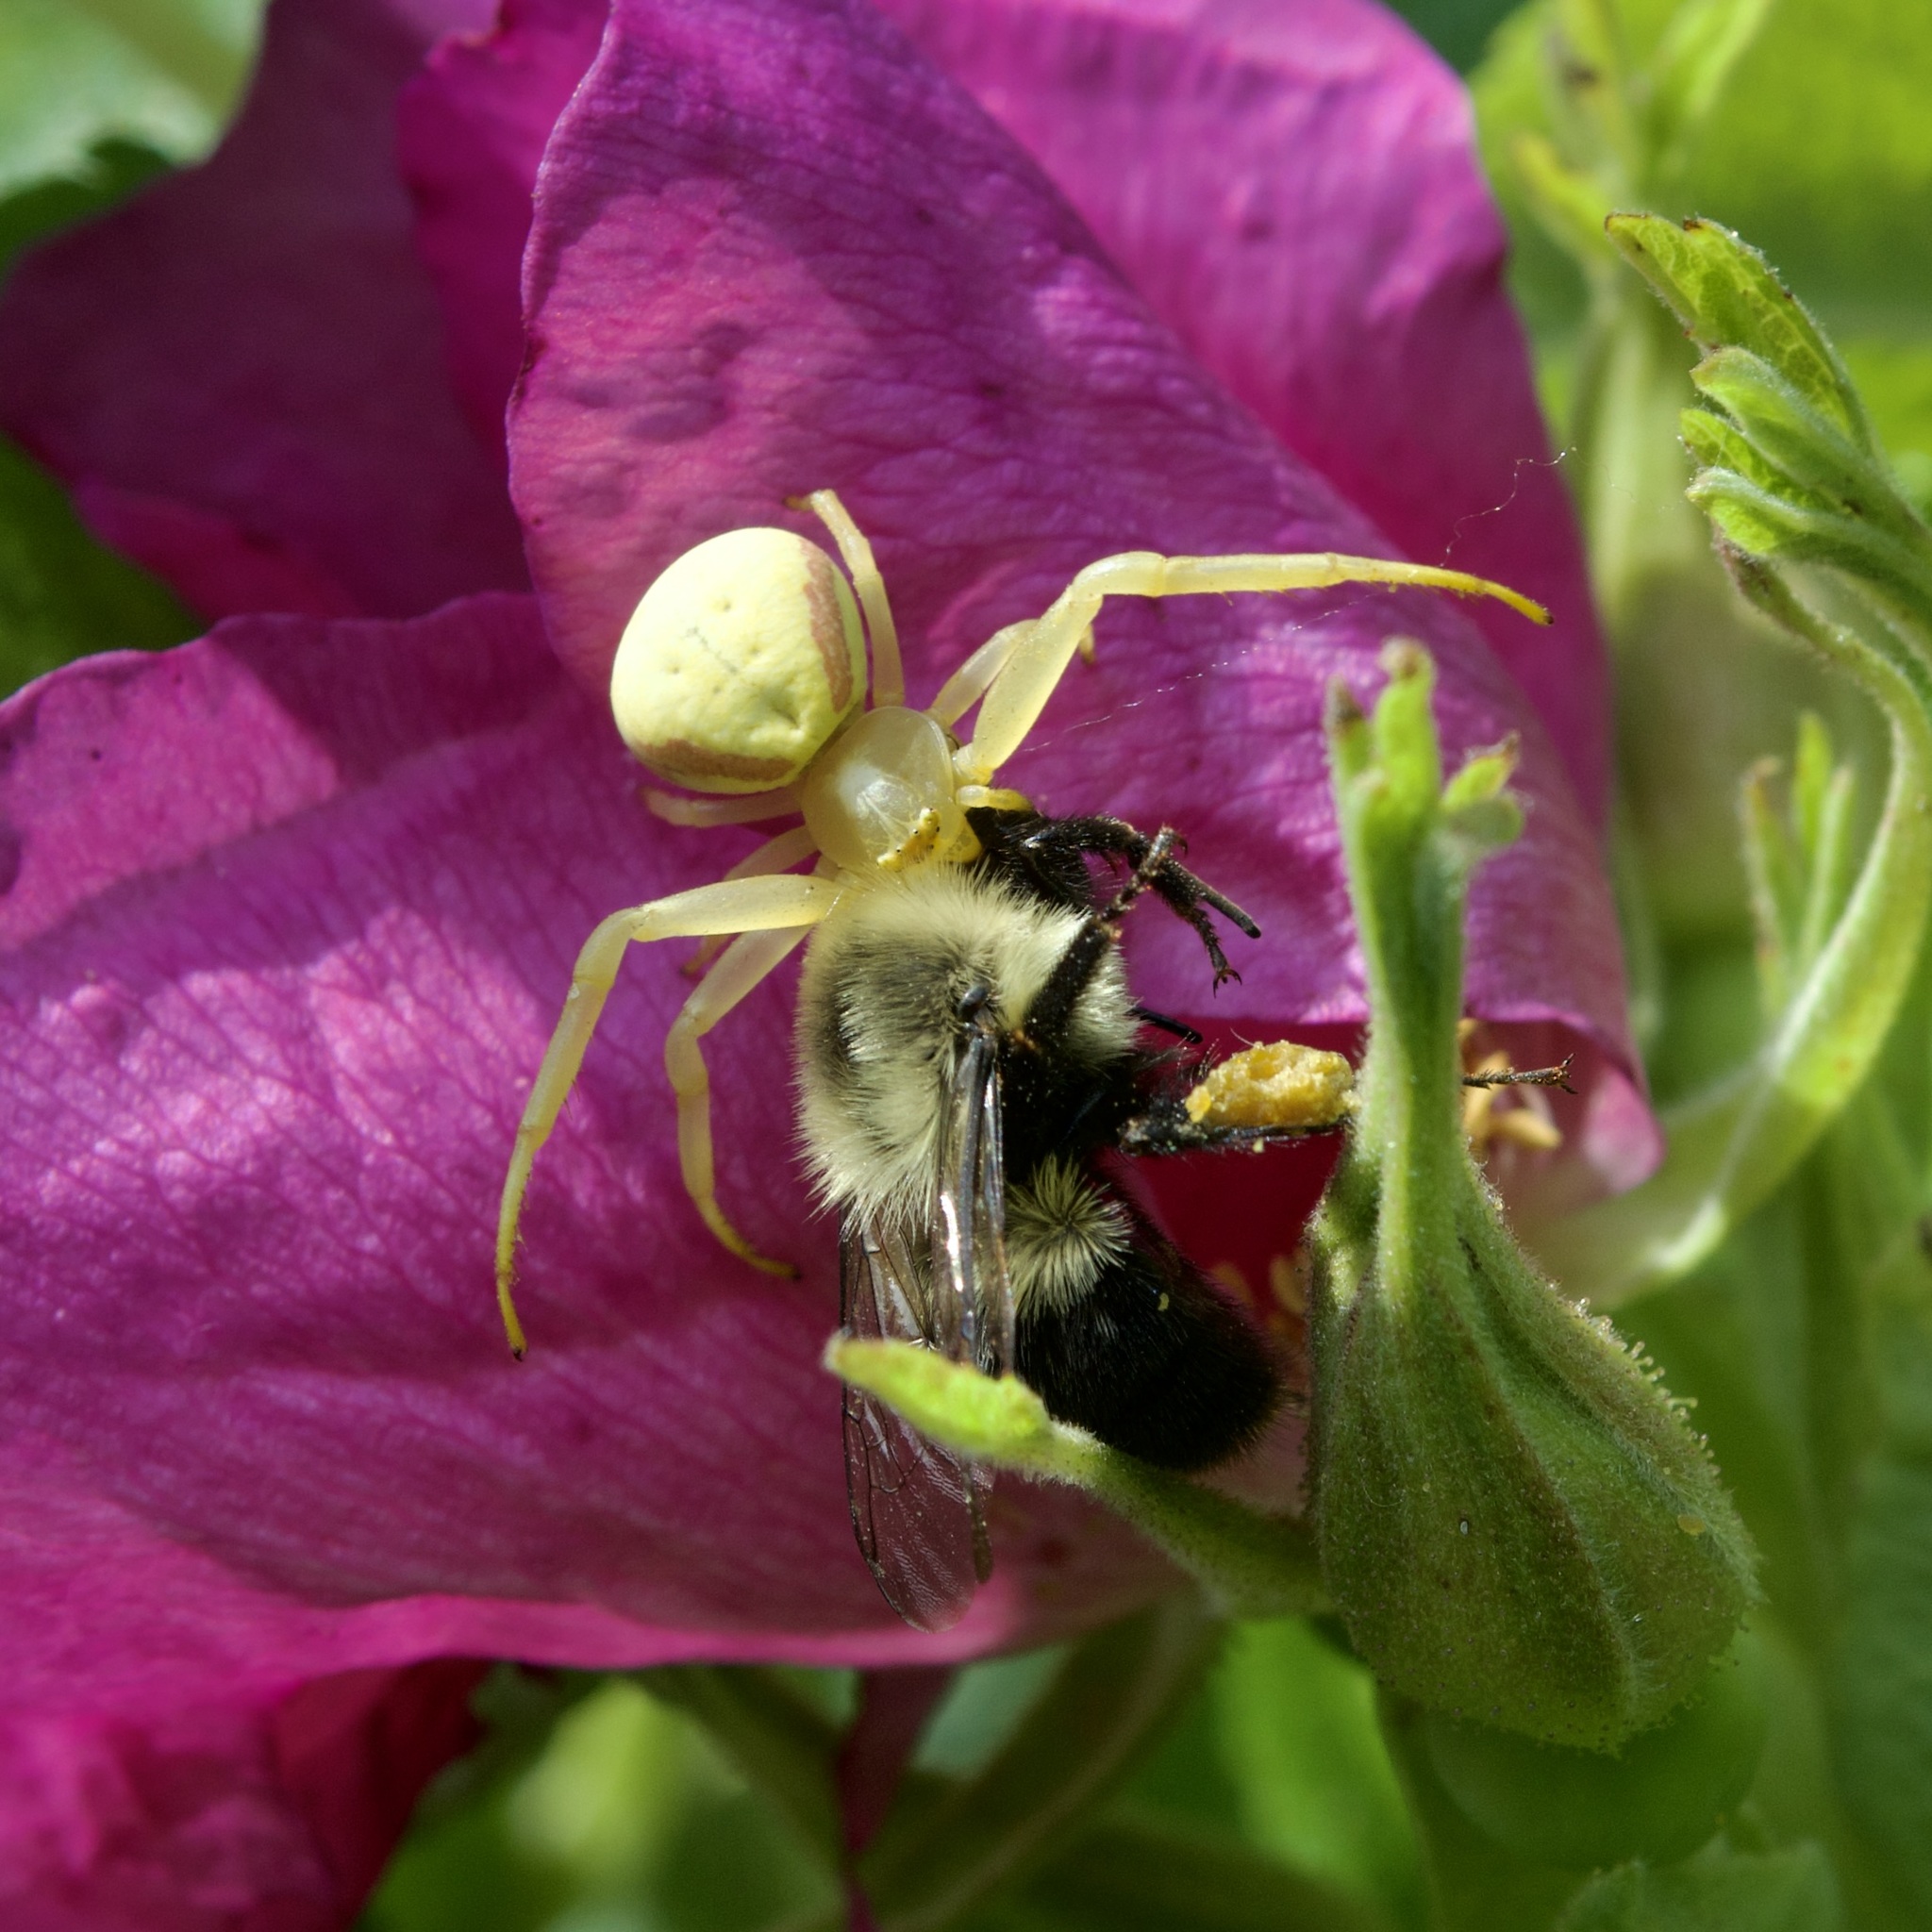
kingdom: Animalia
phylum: Arthropoda
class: Arachnida
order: Araneae
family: Thomisidae
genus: Misumena
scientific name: Misumena vatia
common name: Goldenrod crab spider
